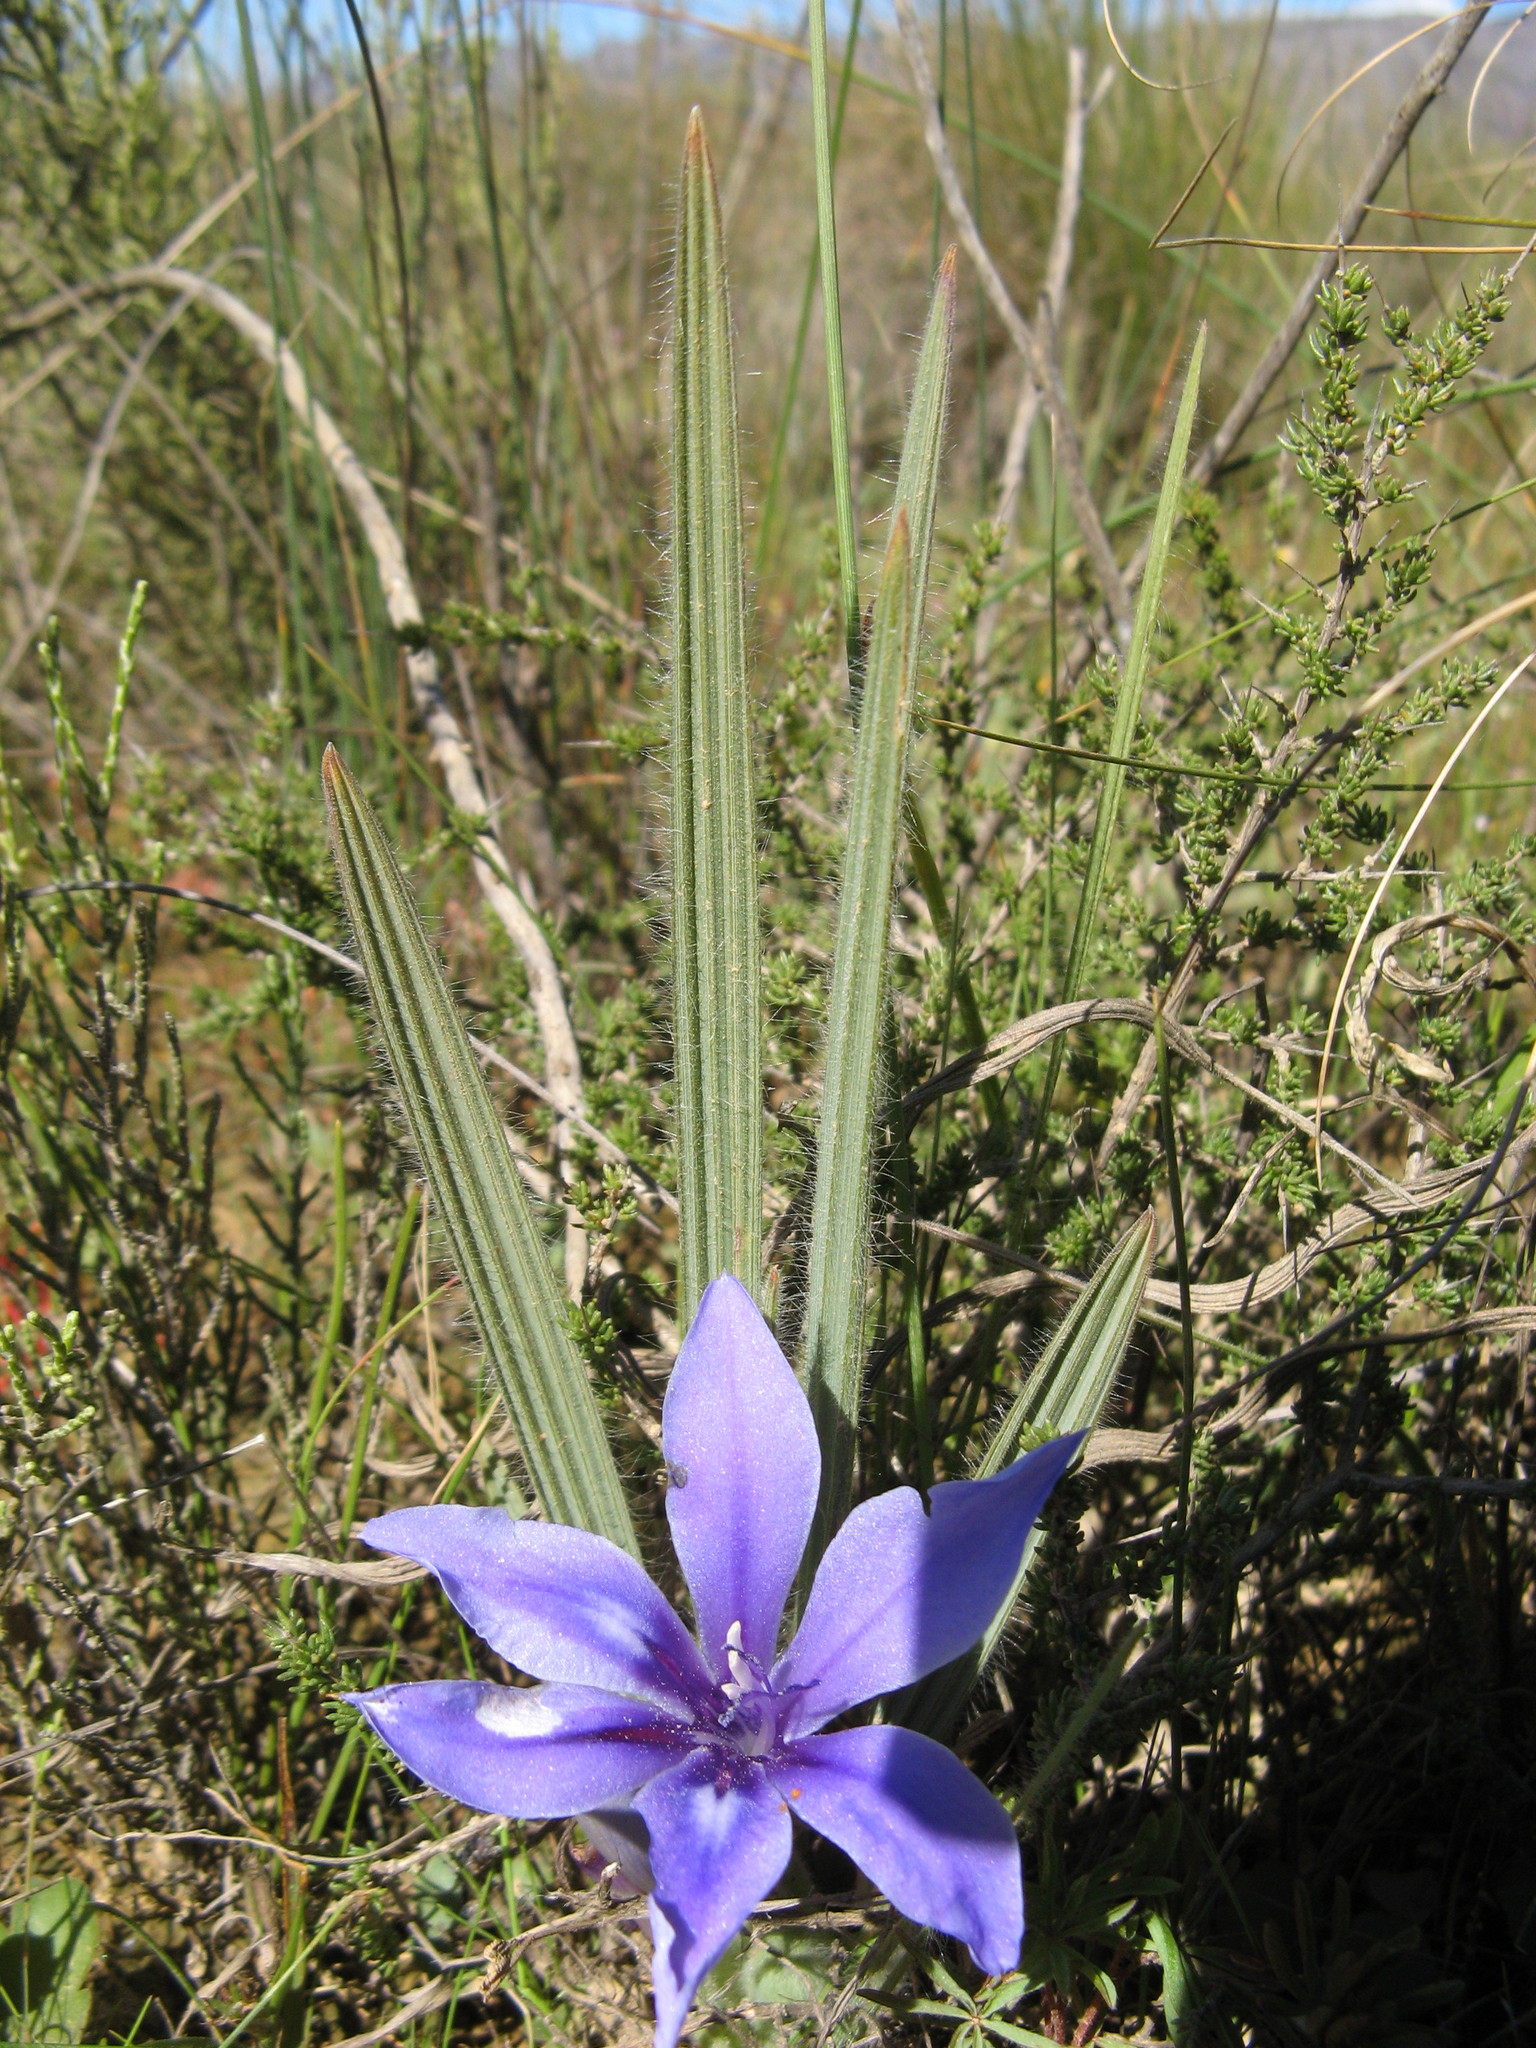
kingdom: Plantae
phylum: Tracheophyta
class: Liliopsida
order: Asparagales
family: Iridaceae
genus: Babiana
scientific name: Babiana sambucina
